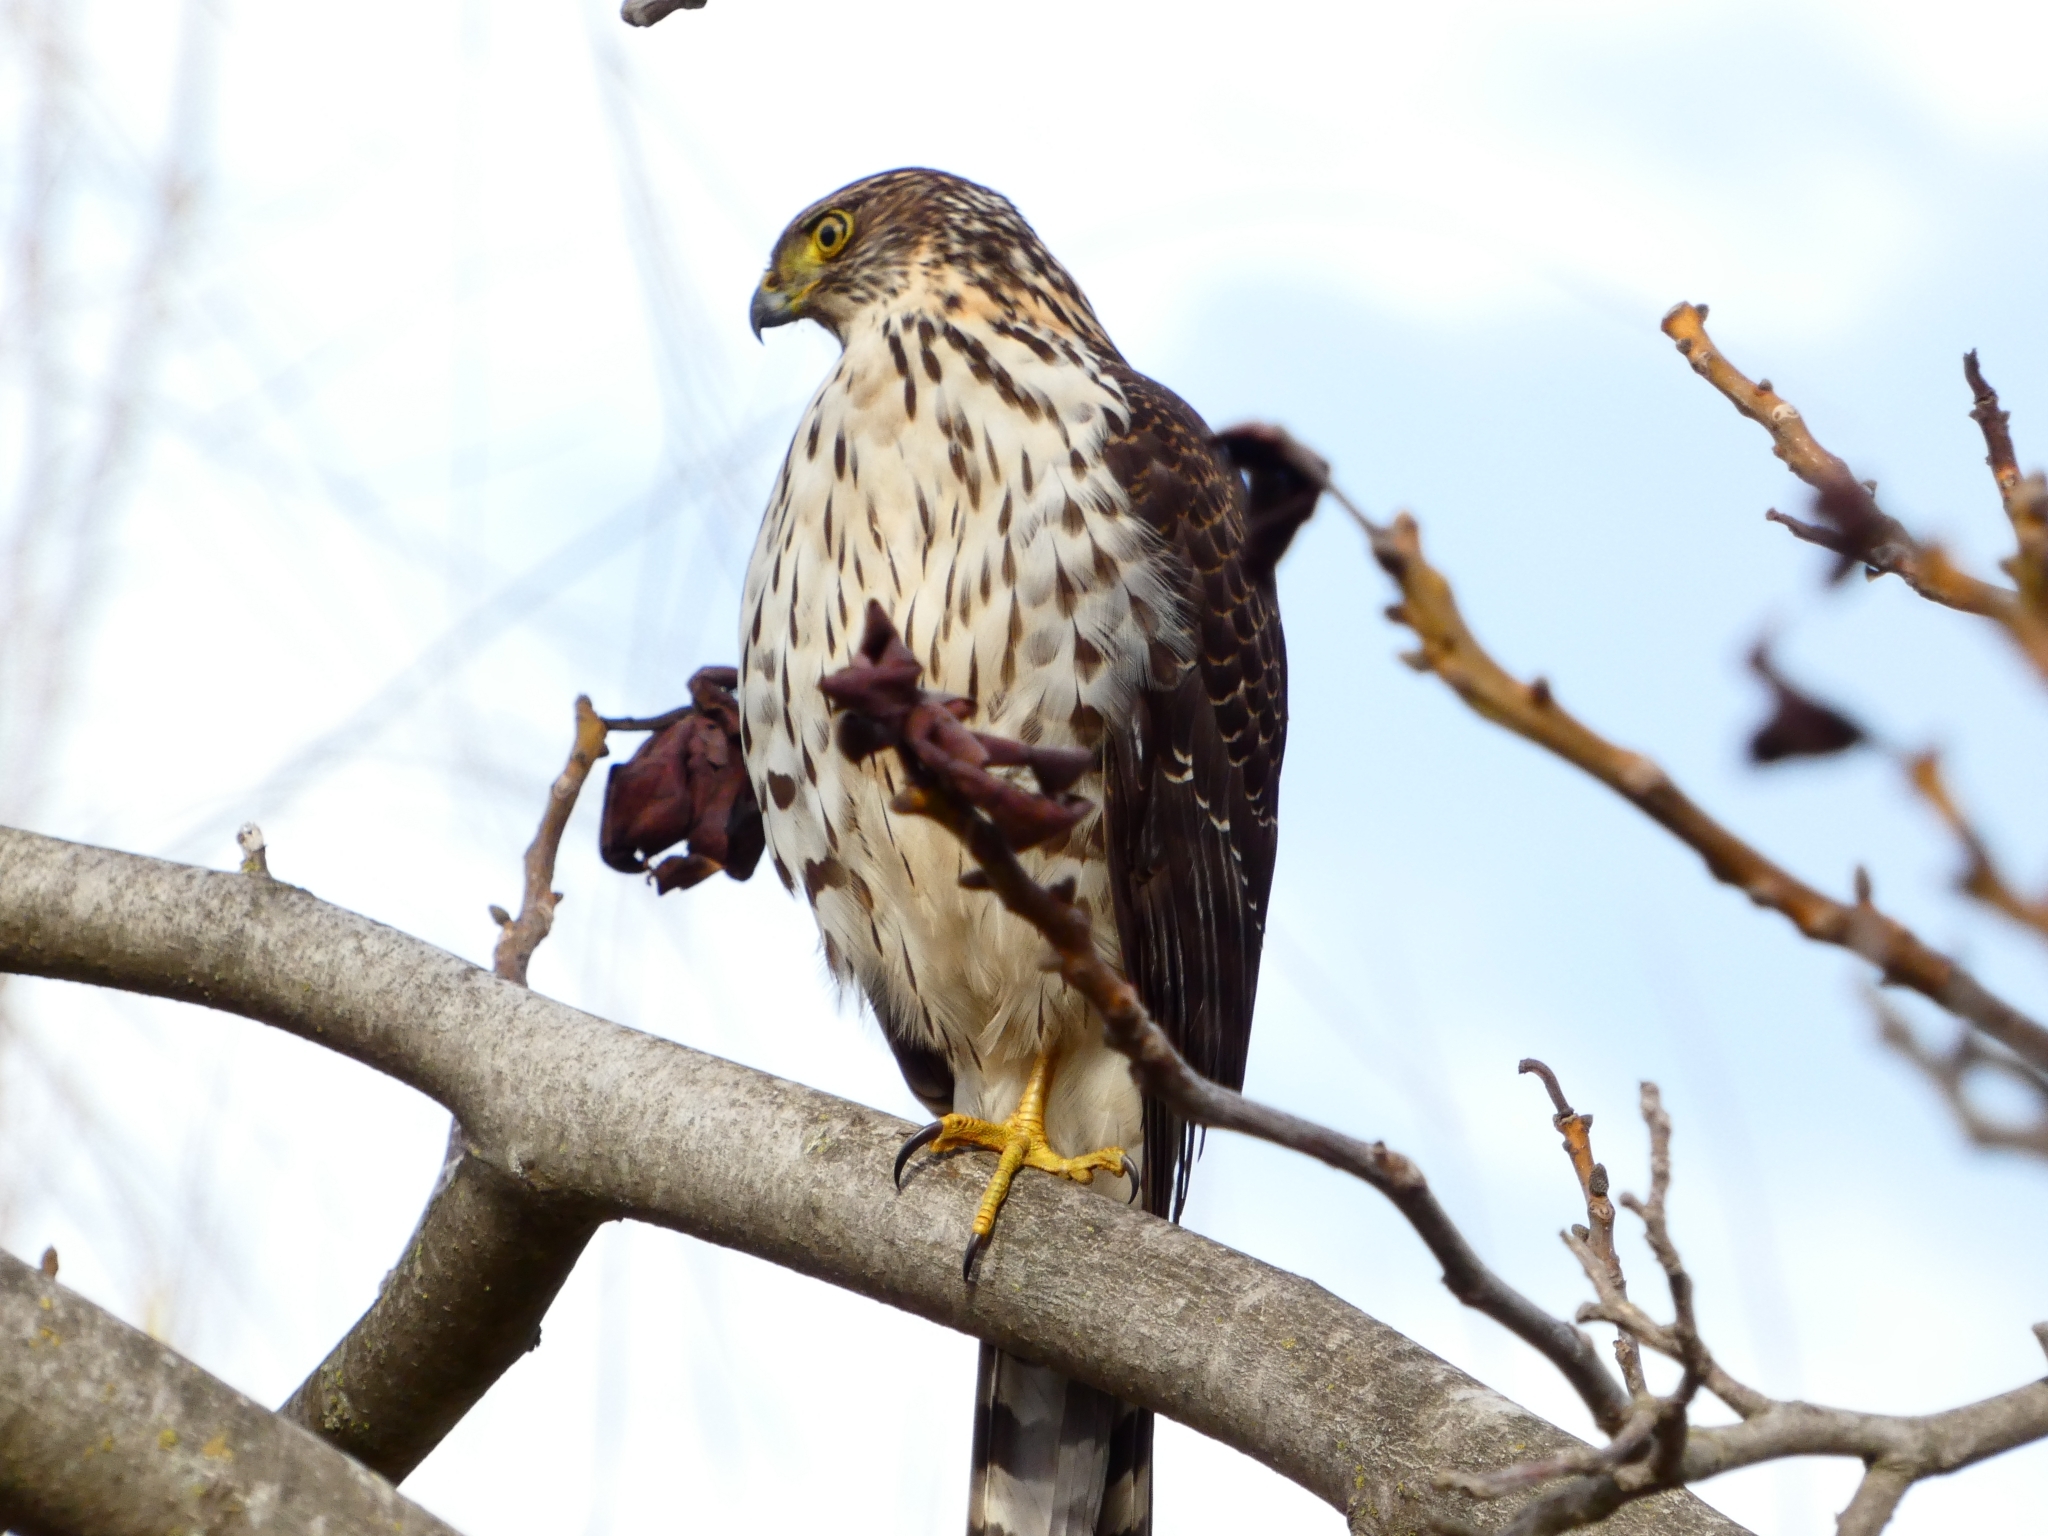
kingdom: Animalia
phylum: Chordata
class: Aves
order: Accipitriformes
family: Accipitridae
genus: Accipiter
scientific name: Accipiter chilensis
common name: Chilean hawk
